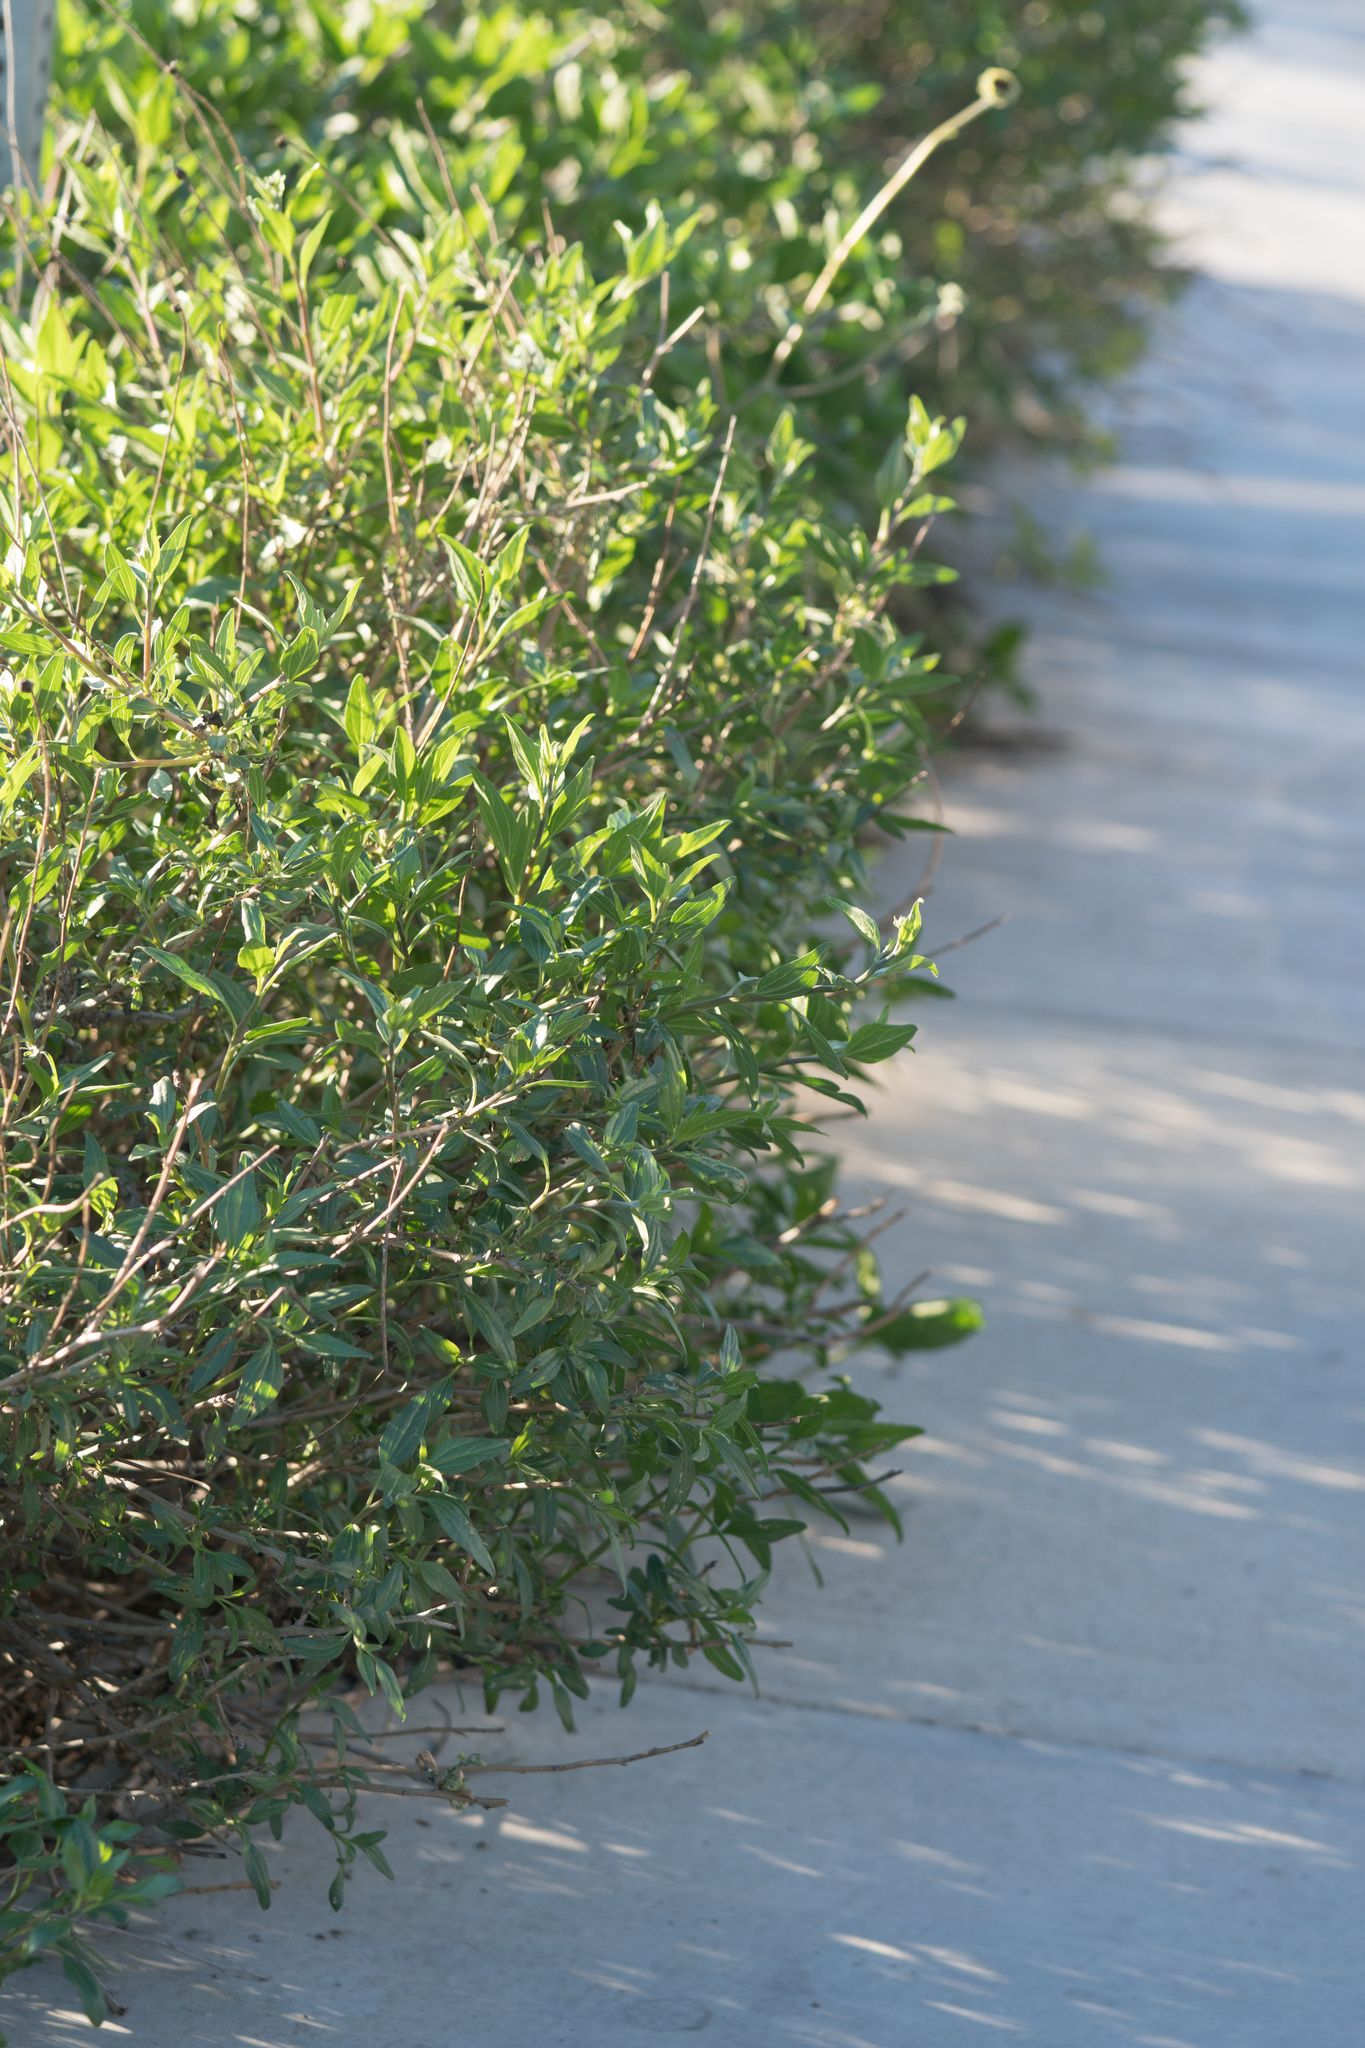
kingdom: Plantae
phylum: Tracheophyta
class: Magnoliopsida
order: Asterales
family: Asteraceae
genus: Encelia
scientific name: Encelia californica
